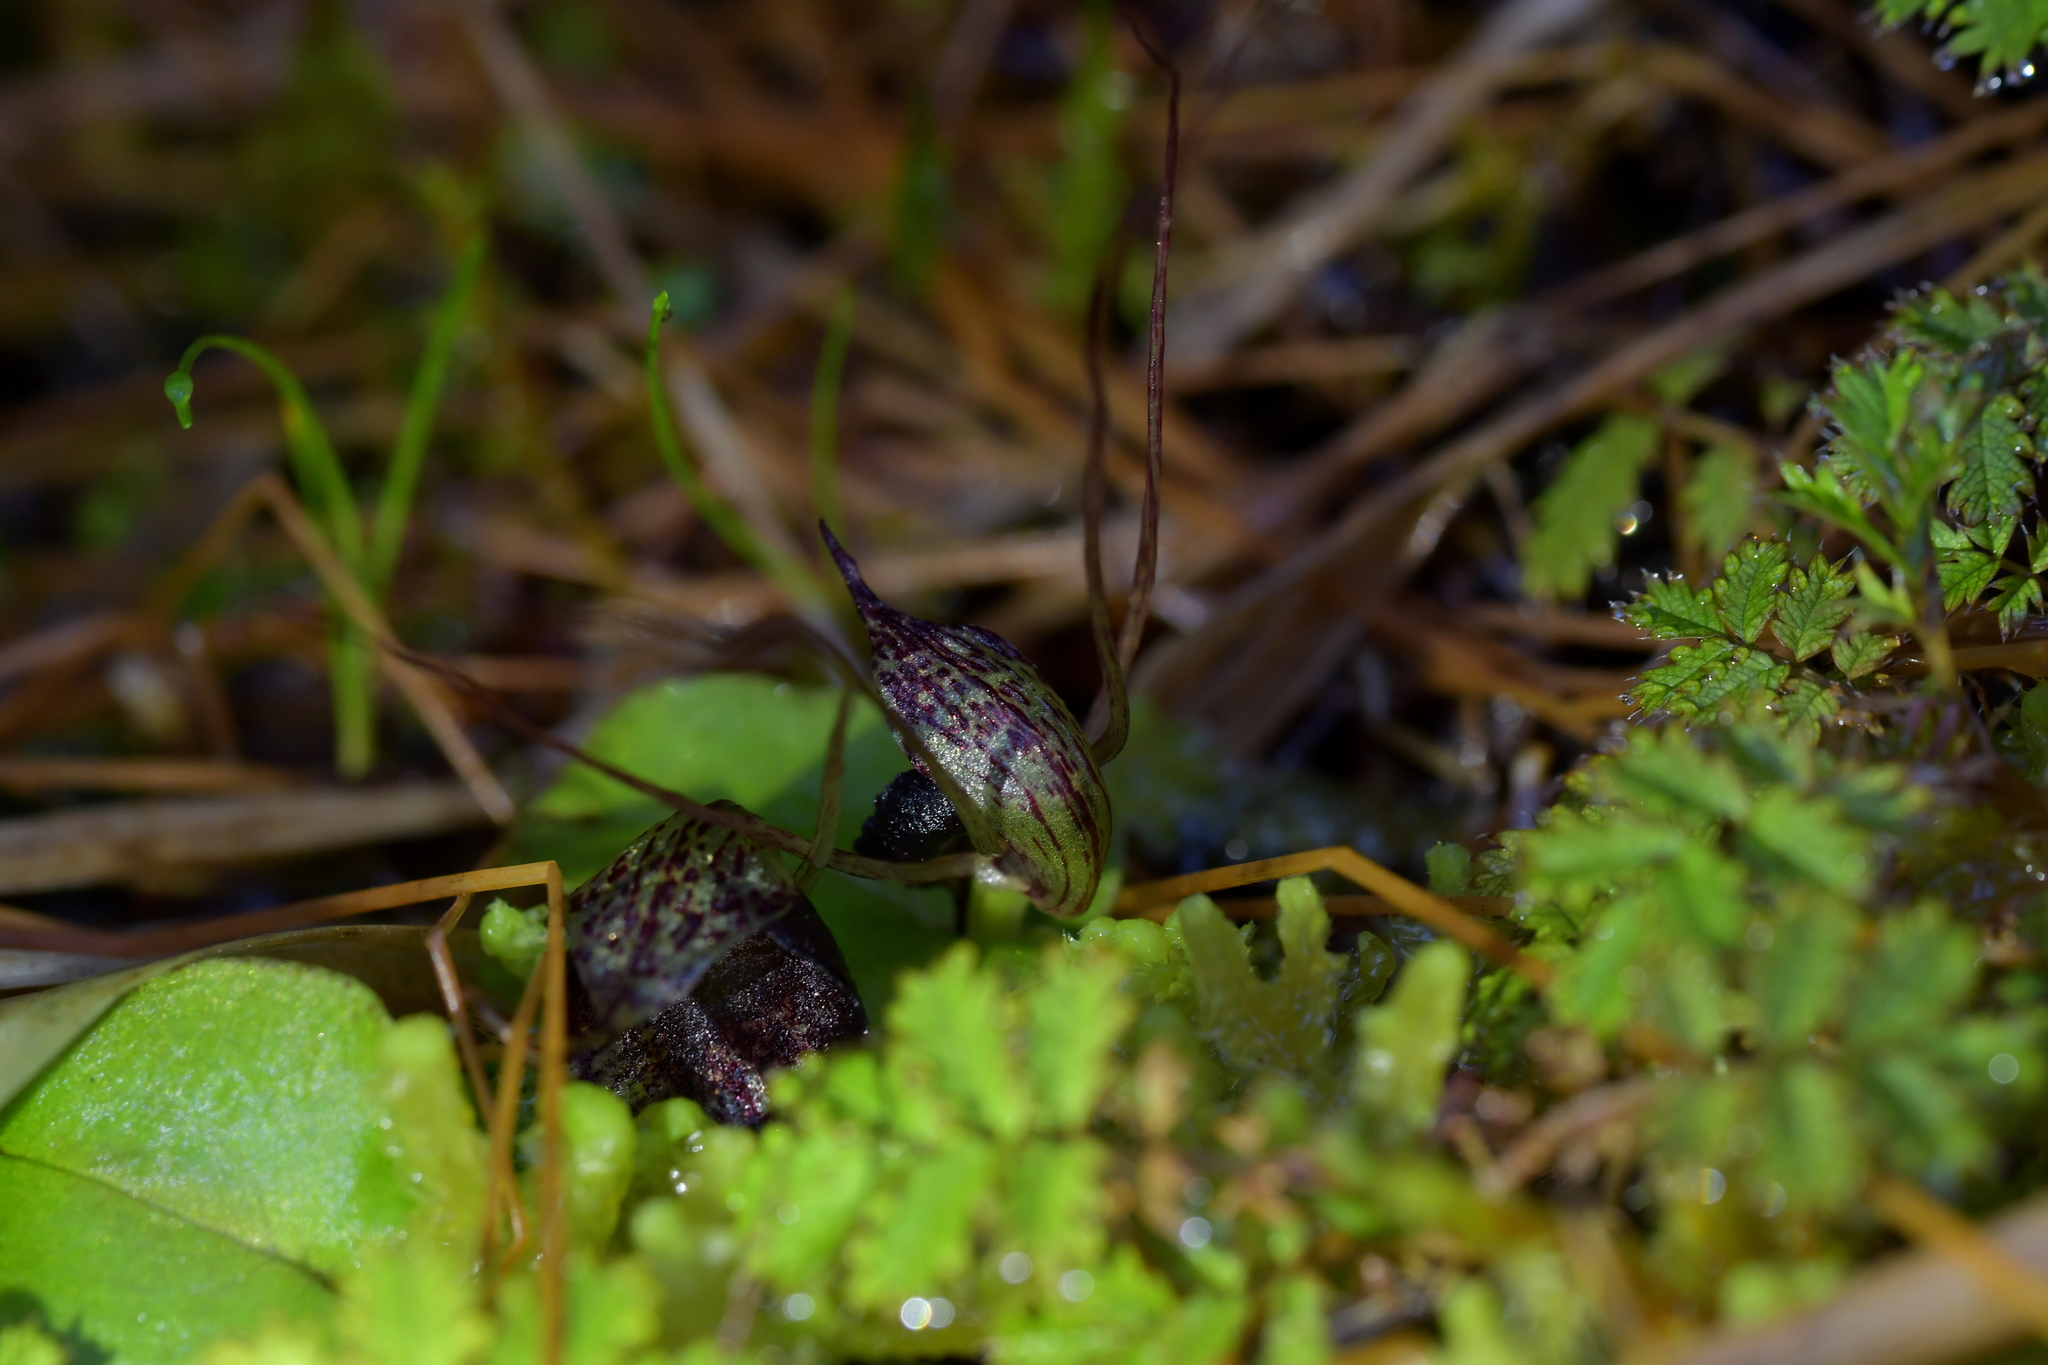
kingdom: Plantae
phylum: Tracheophyta
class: Liliopsida
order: Asparagales
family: Orchidaceae
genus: Corybas
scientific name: Corybas iridescens
